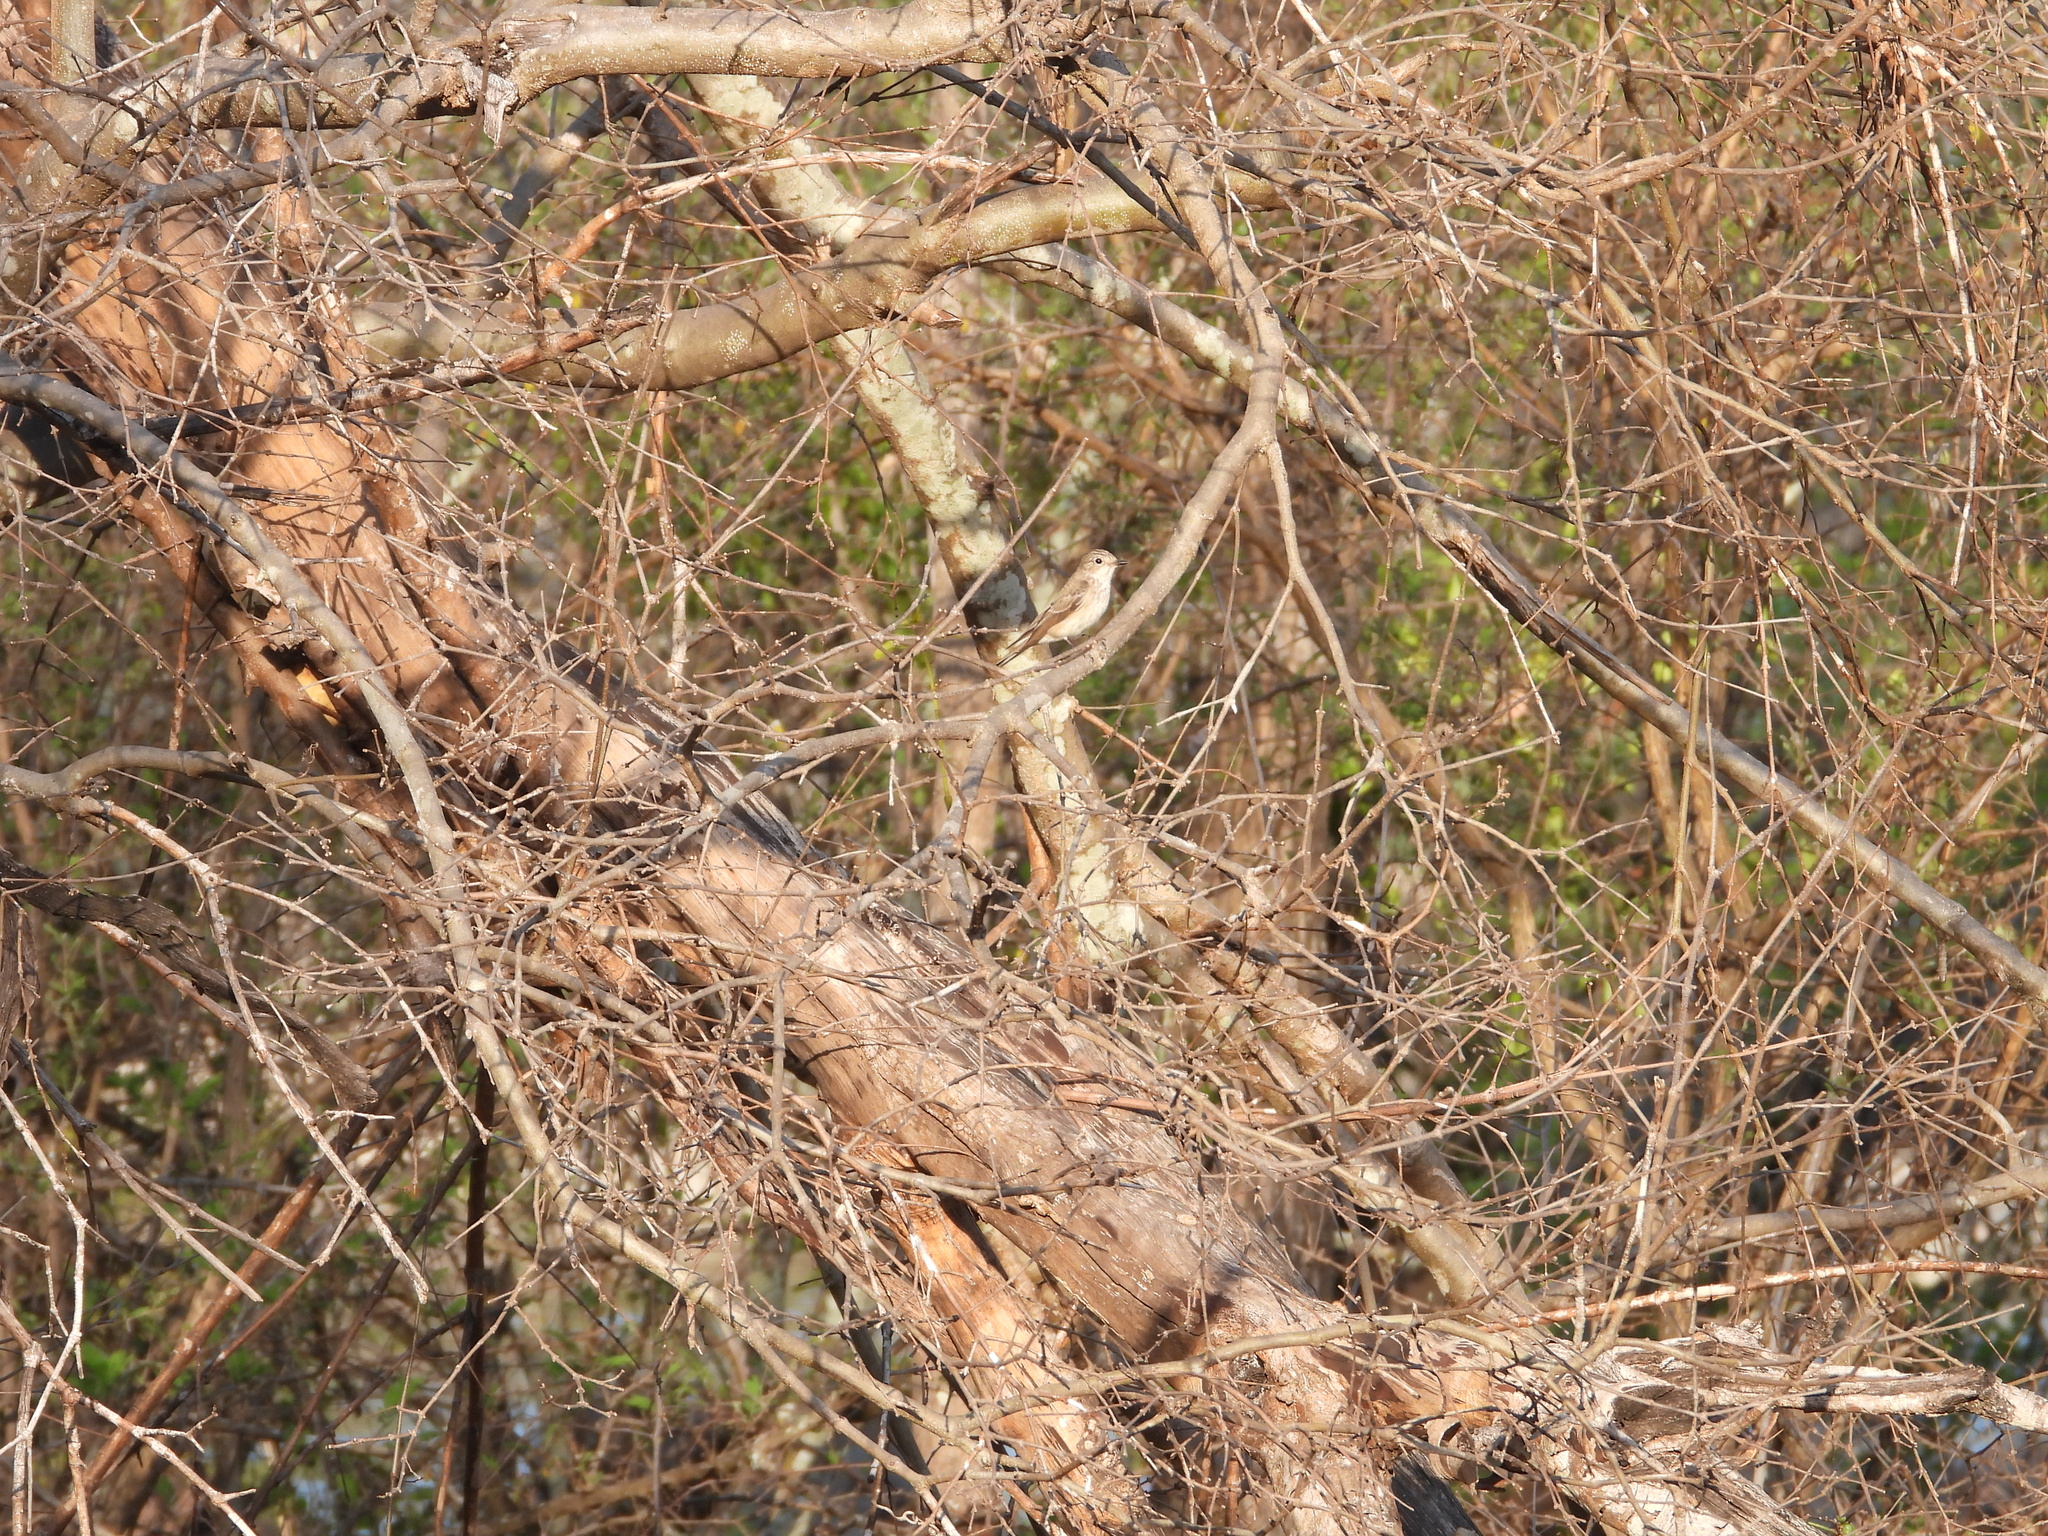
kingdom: Animalia
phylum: Chordata
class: Aves
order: Passeriformes
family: Muscicapidae
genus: Muscicapa
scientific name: Muscicapa striata
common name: Spotted flycatcher
